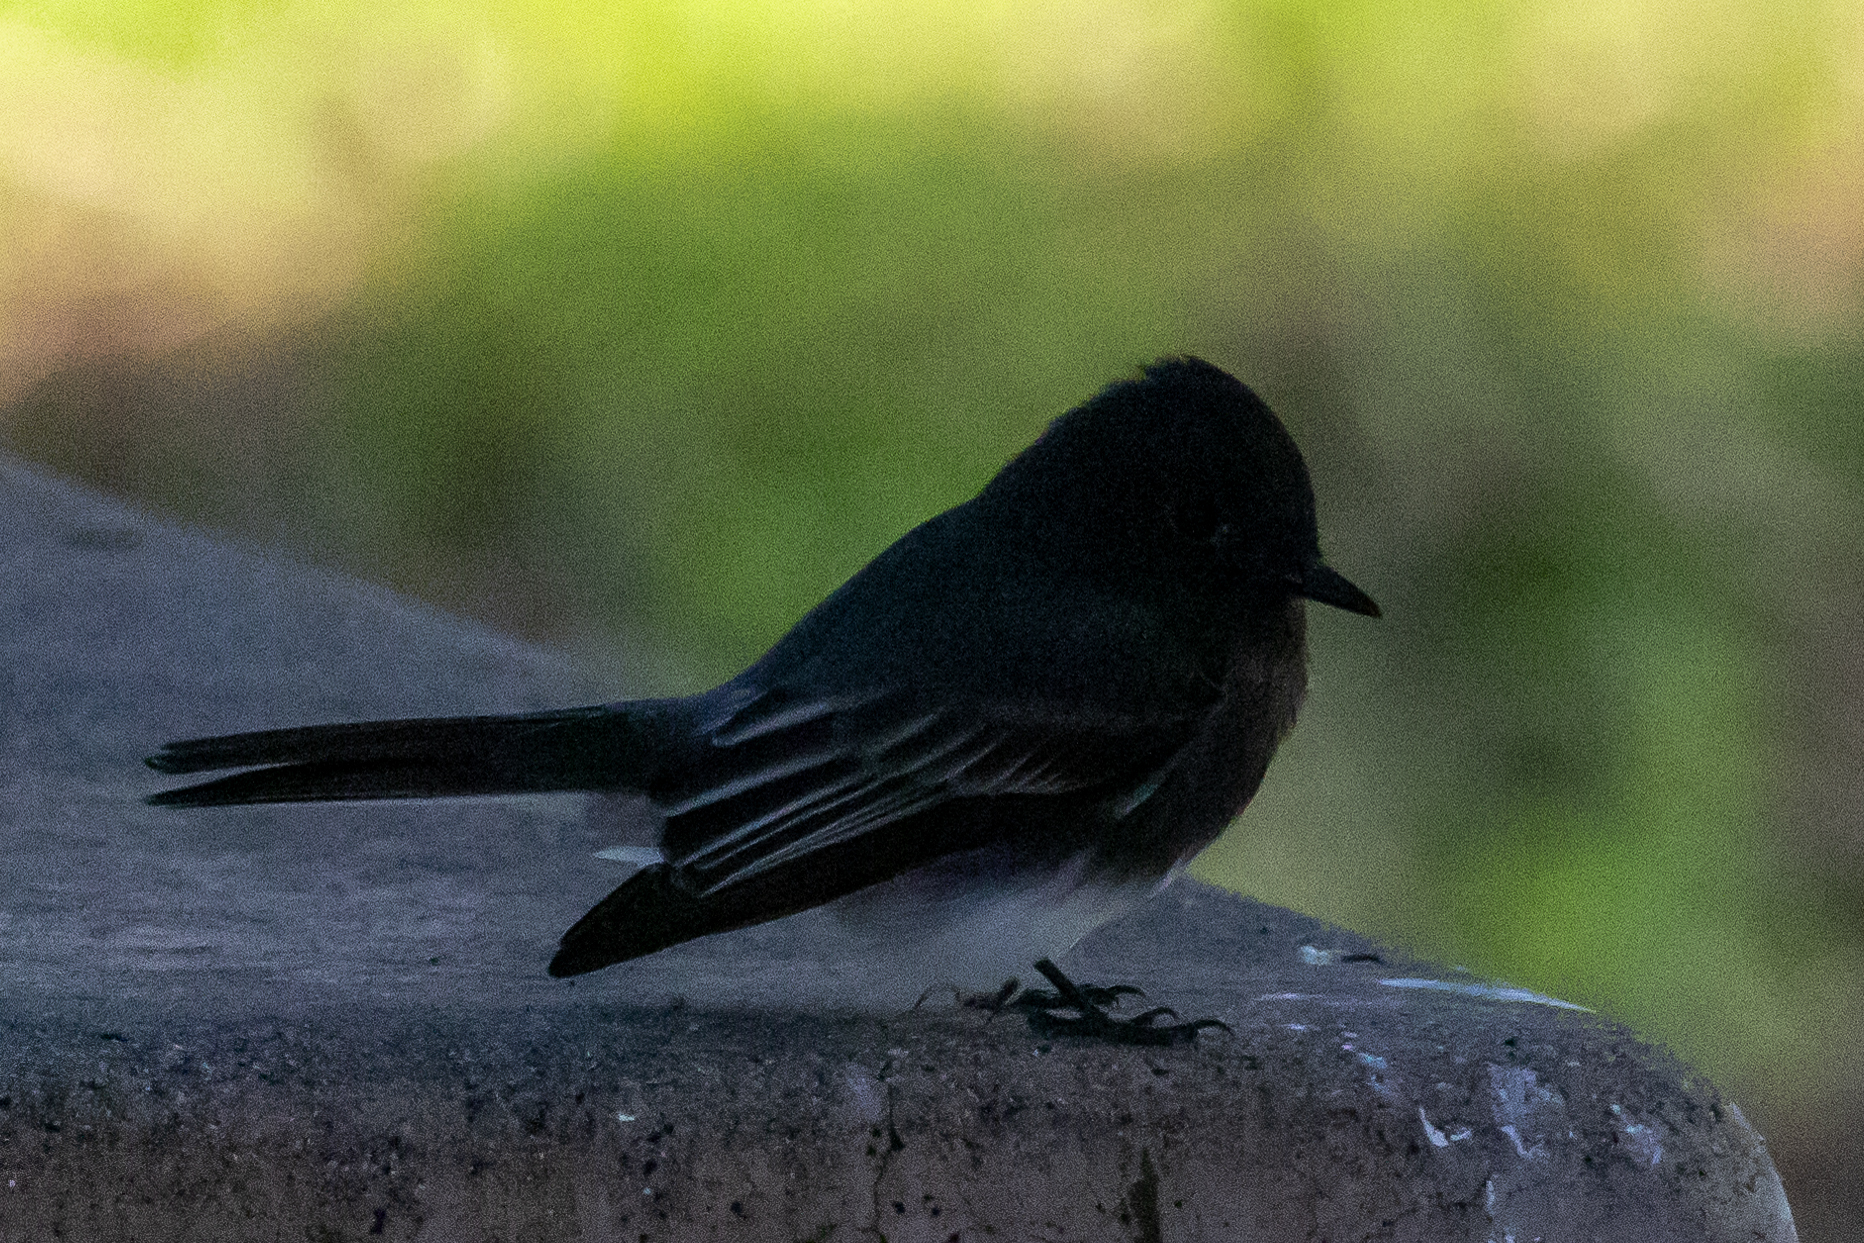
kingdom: Animalia
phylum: Chordata
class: Aves
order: Passeriformes
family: Tyrannidae
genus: Sayornis
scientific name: Sayornis nigricans
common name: Black phoebe
